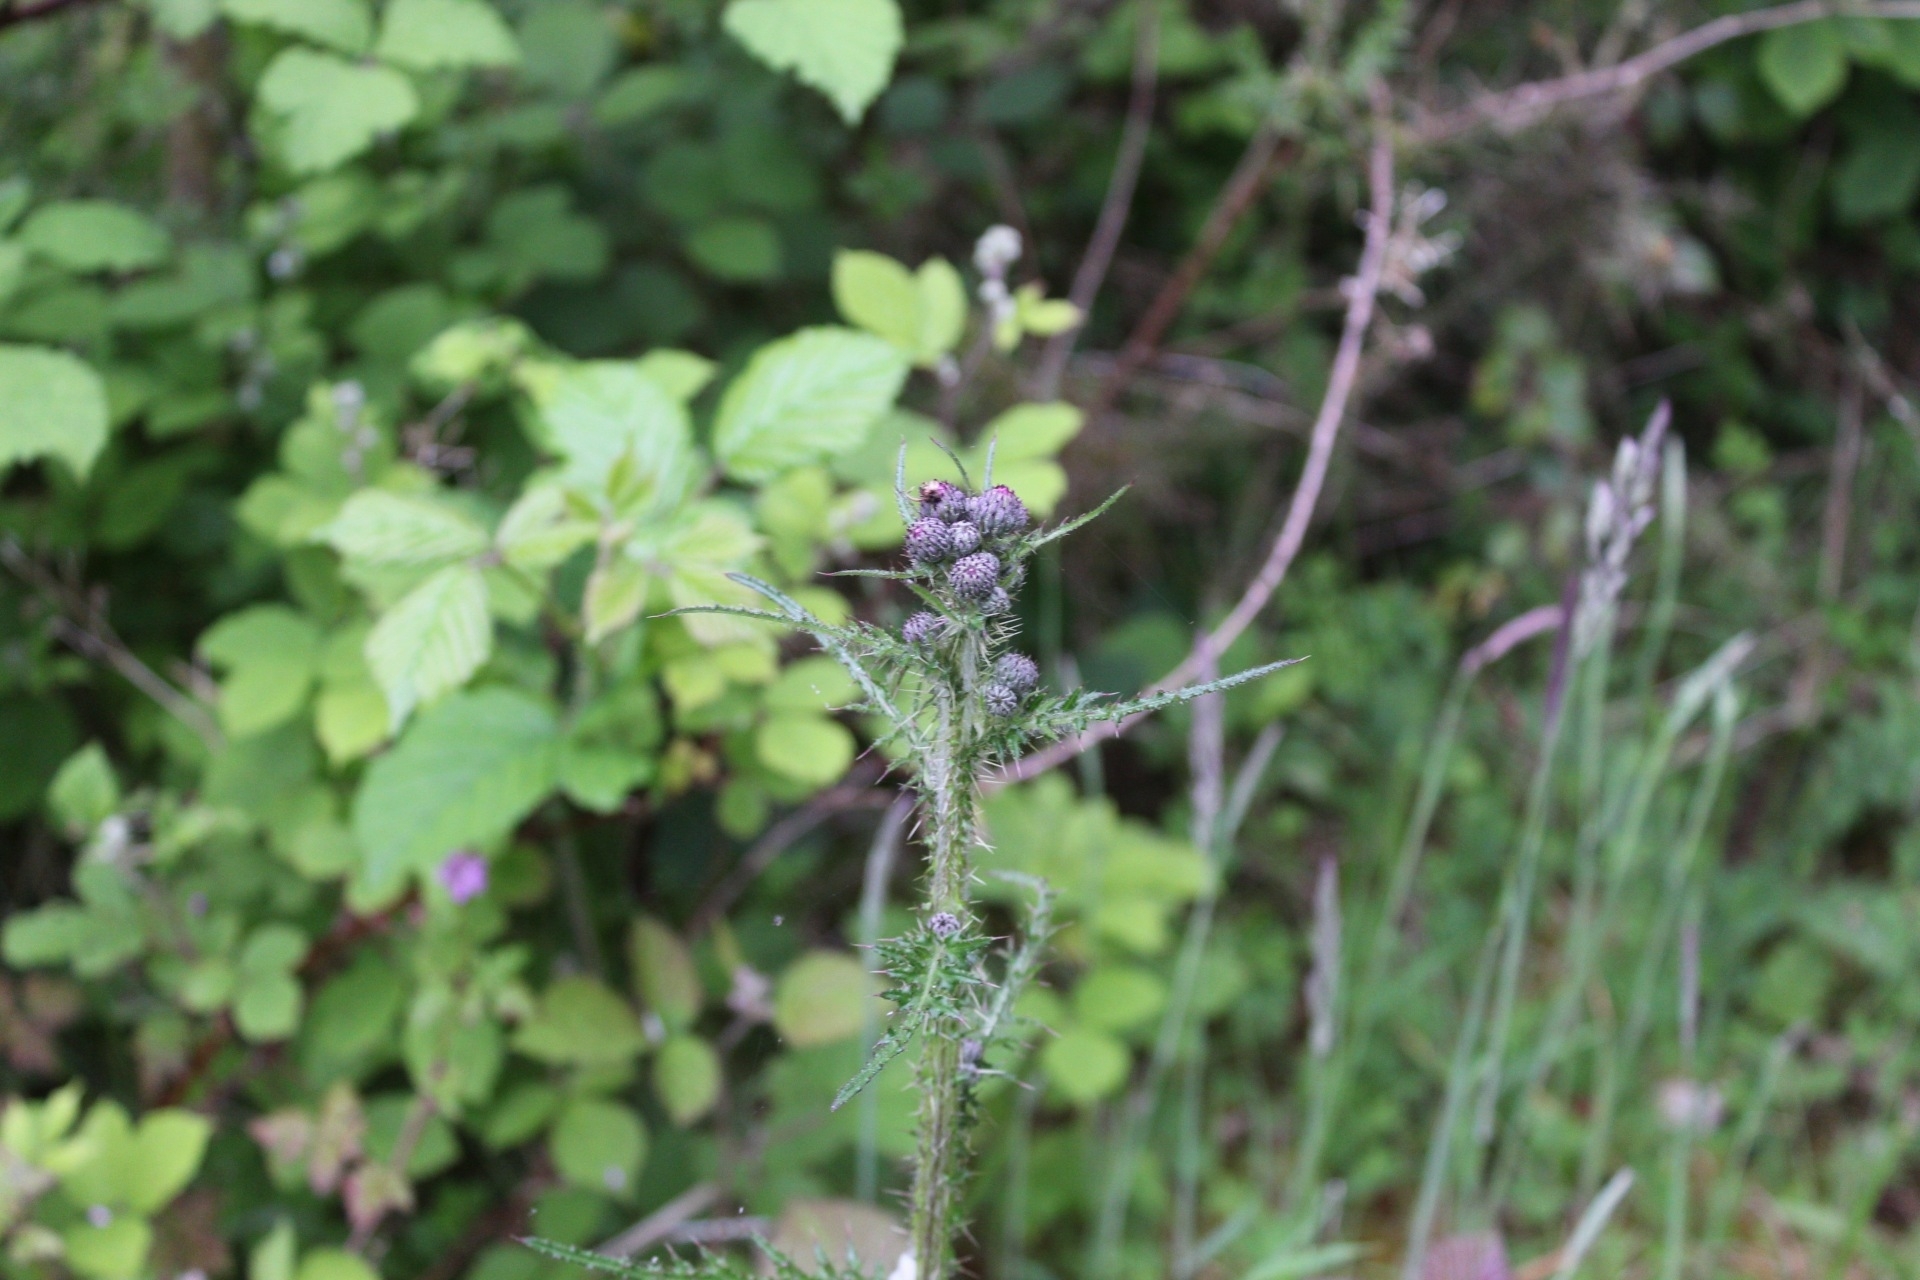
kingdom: Plantae
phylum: Tracheophyta
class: Magnoliopsida
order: Asterales
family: Asteraceae
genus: Cirsium
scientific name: Cirsium palustre
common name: Marsh thistle
